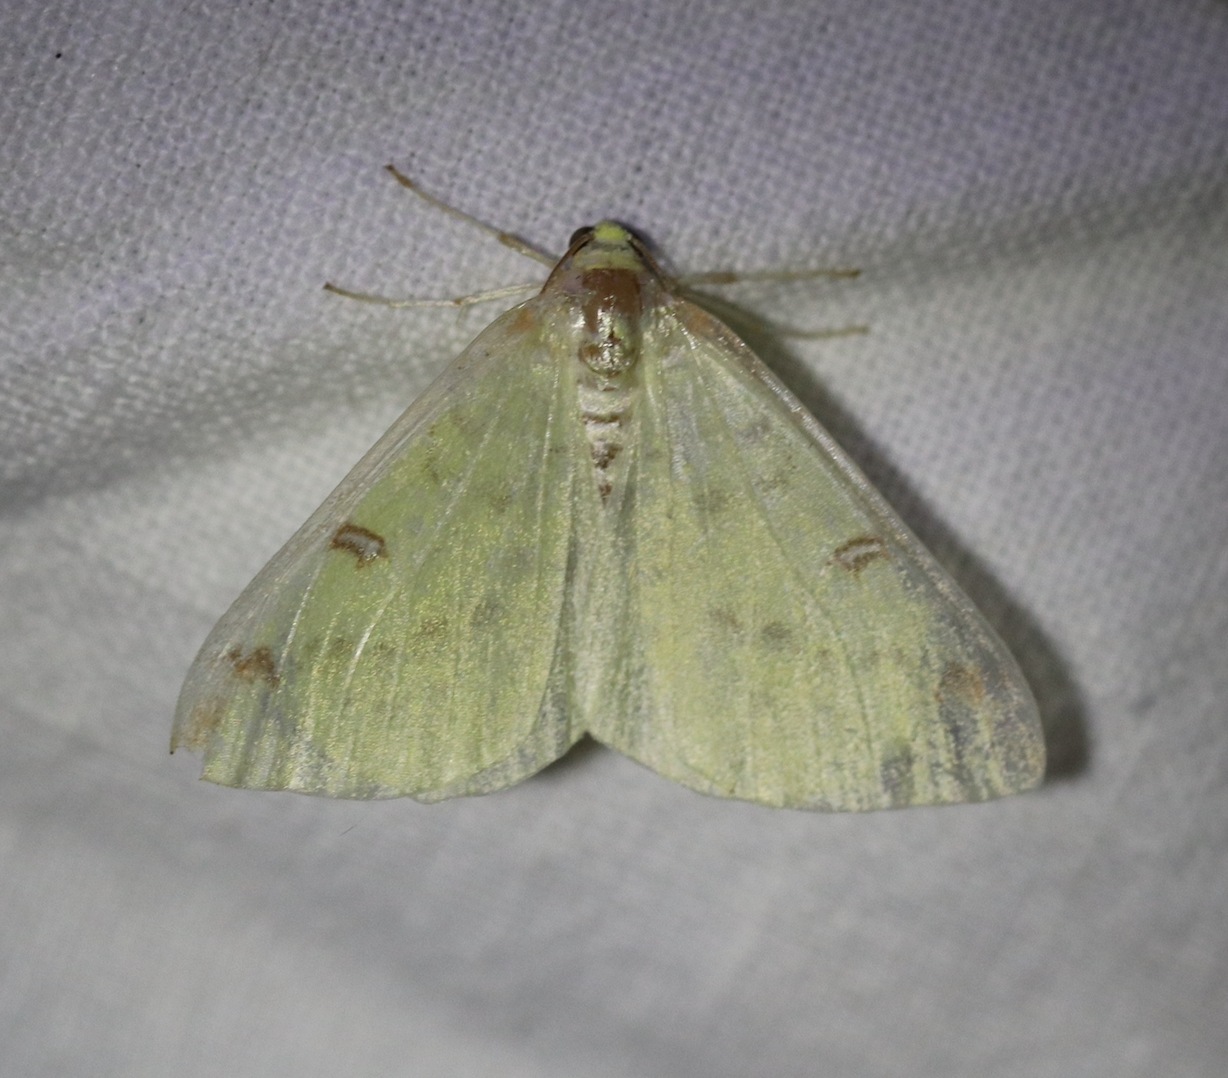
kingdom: Animalia
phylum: Arthropoda
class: Insecta
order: Lepidoptera
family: Geometridae
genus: Opisthograptis
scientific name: Opisthograptis luteolata
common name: Brimstone moth
